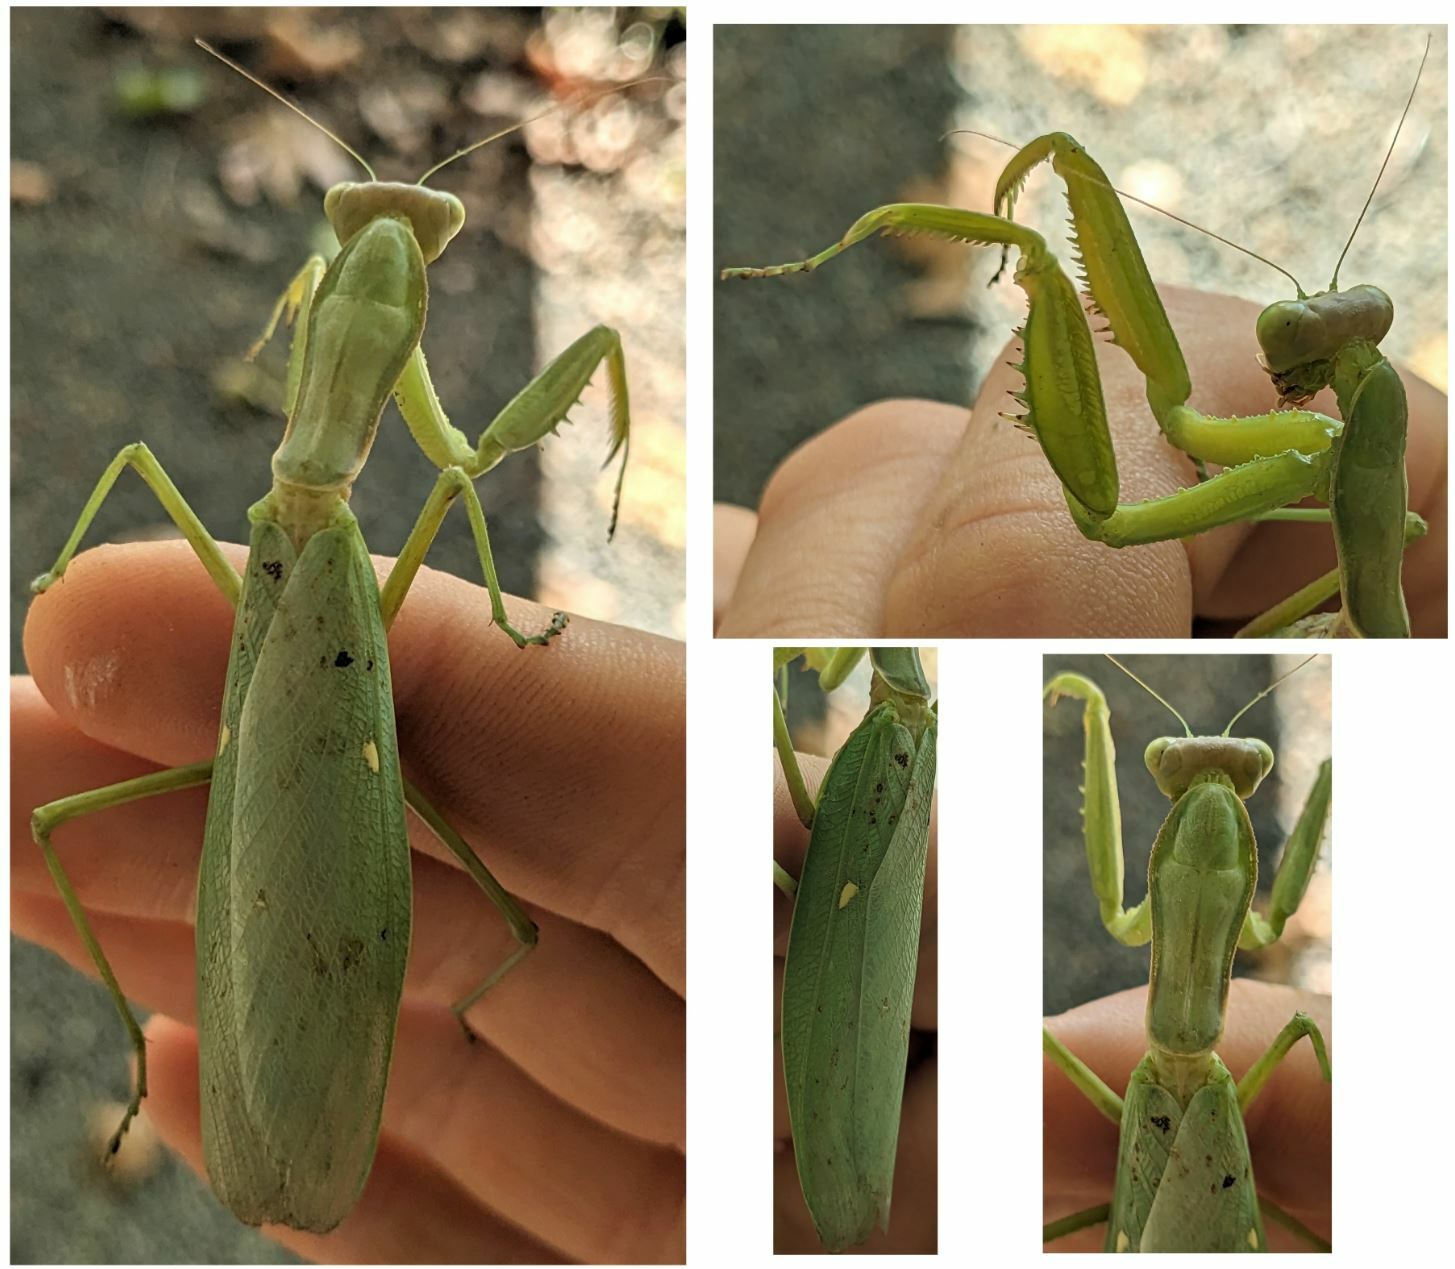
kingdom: Animalia
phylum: Arthropoda
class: Insecta
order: Mantodea
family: Mantidae
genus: Hierodula
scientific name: Hierodula transcaucasica
